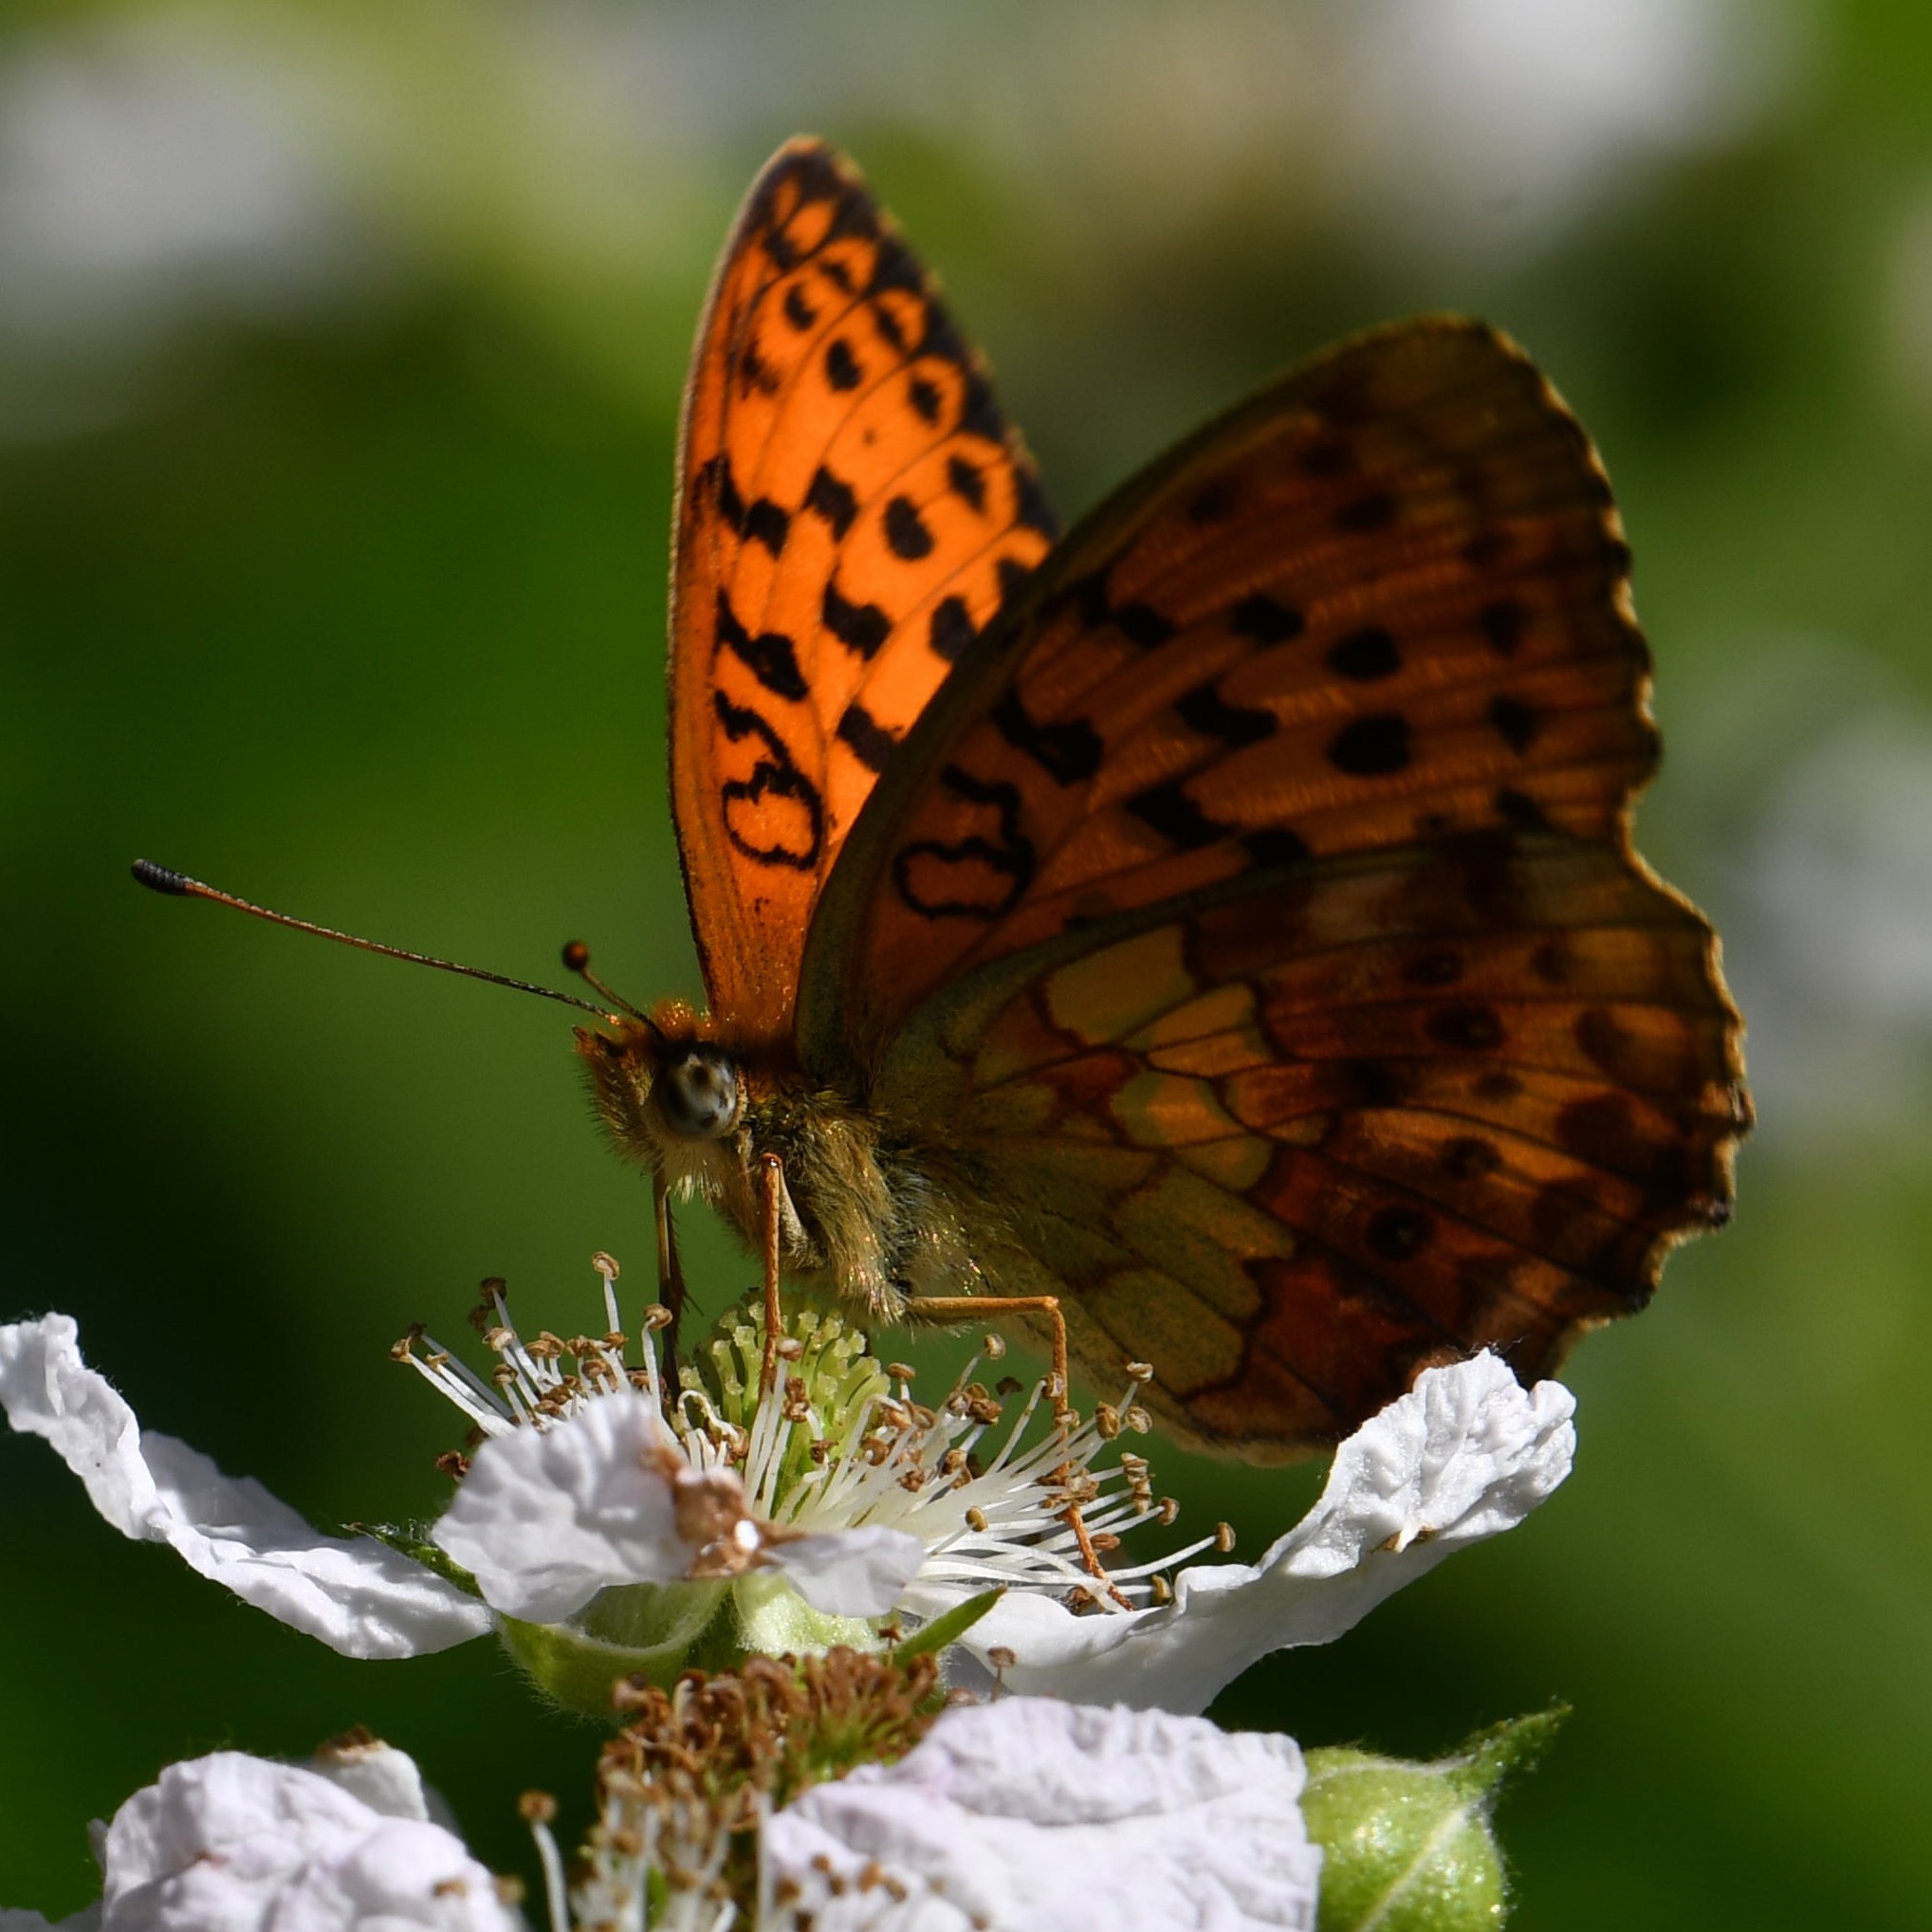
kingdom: Animalia
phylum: Arthropoda
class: Insecta
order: Lepidoptera
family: Nymphalidae
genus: Brenthis
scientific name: Brenthis daphne
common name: Marbled fritillary
